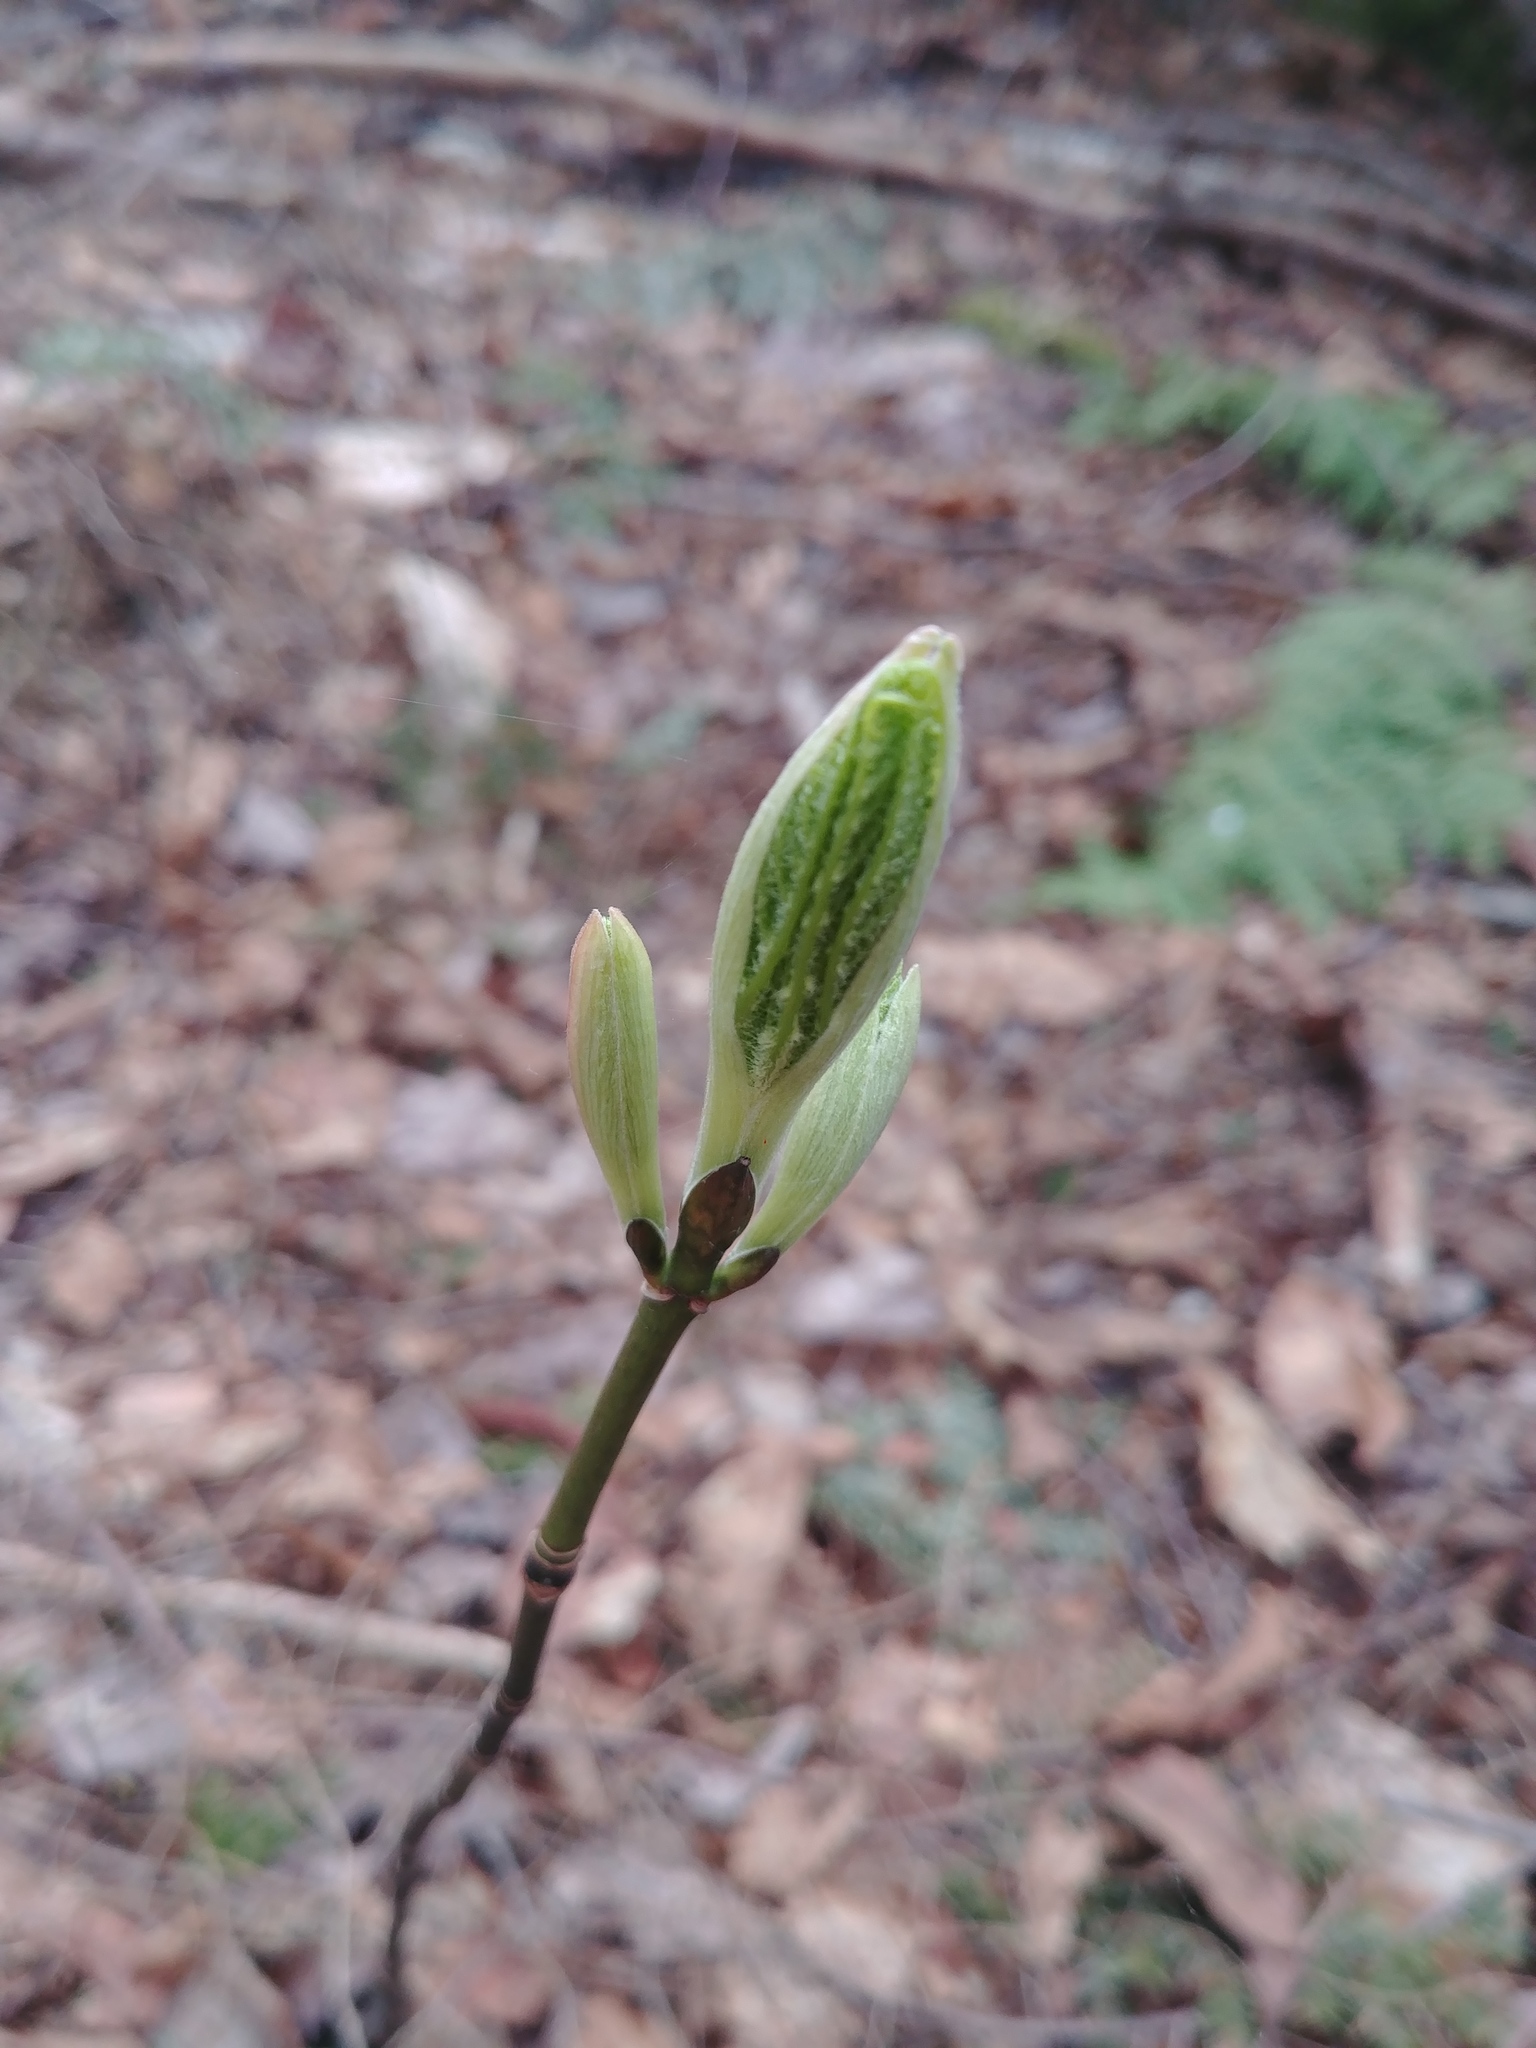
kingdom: Plantae
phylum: Tracheophyta
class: Magnoliopsida
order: Sapindales
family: Sapindaceae
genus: Acer
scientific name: Acer pensylvanicum
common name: Moosewood
